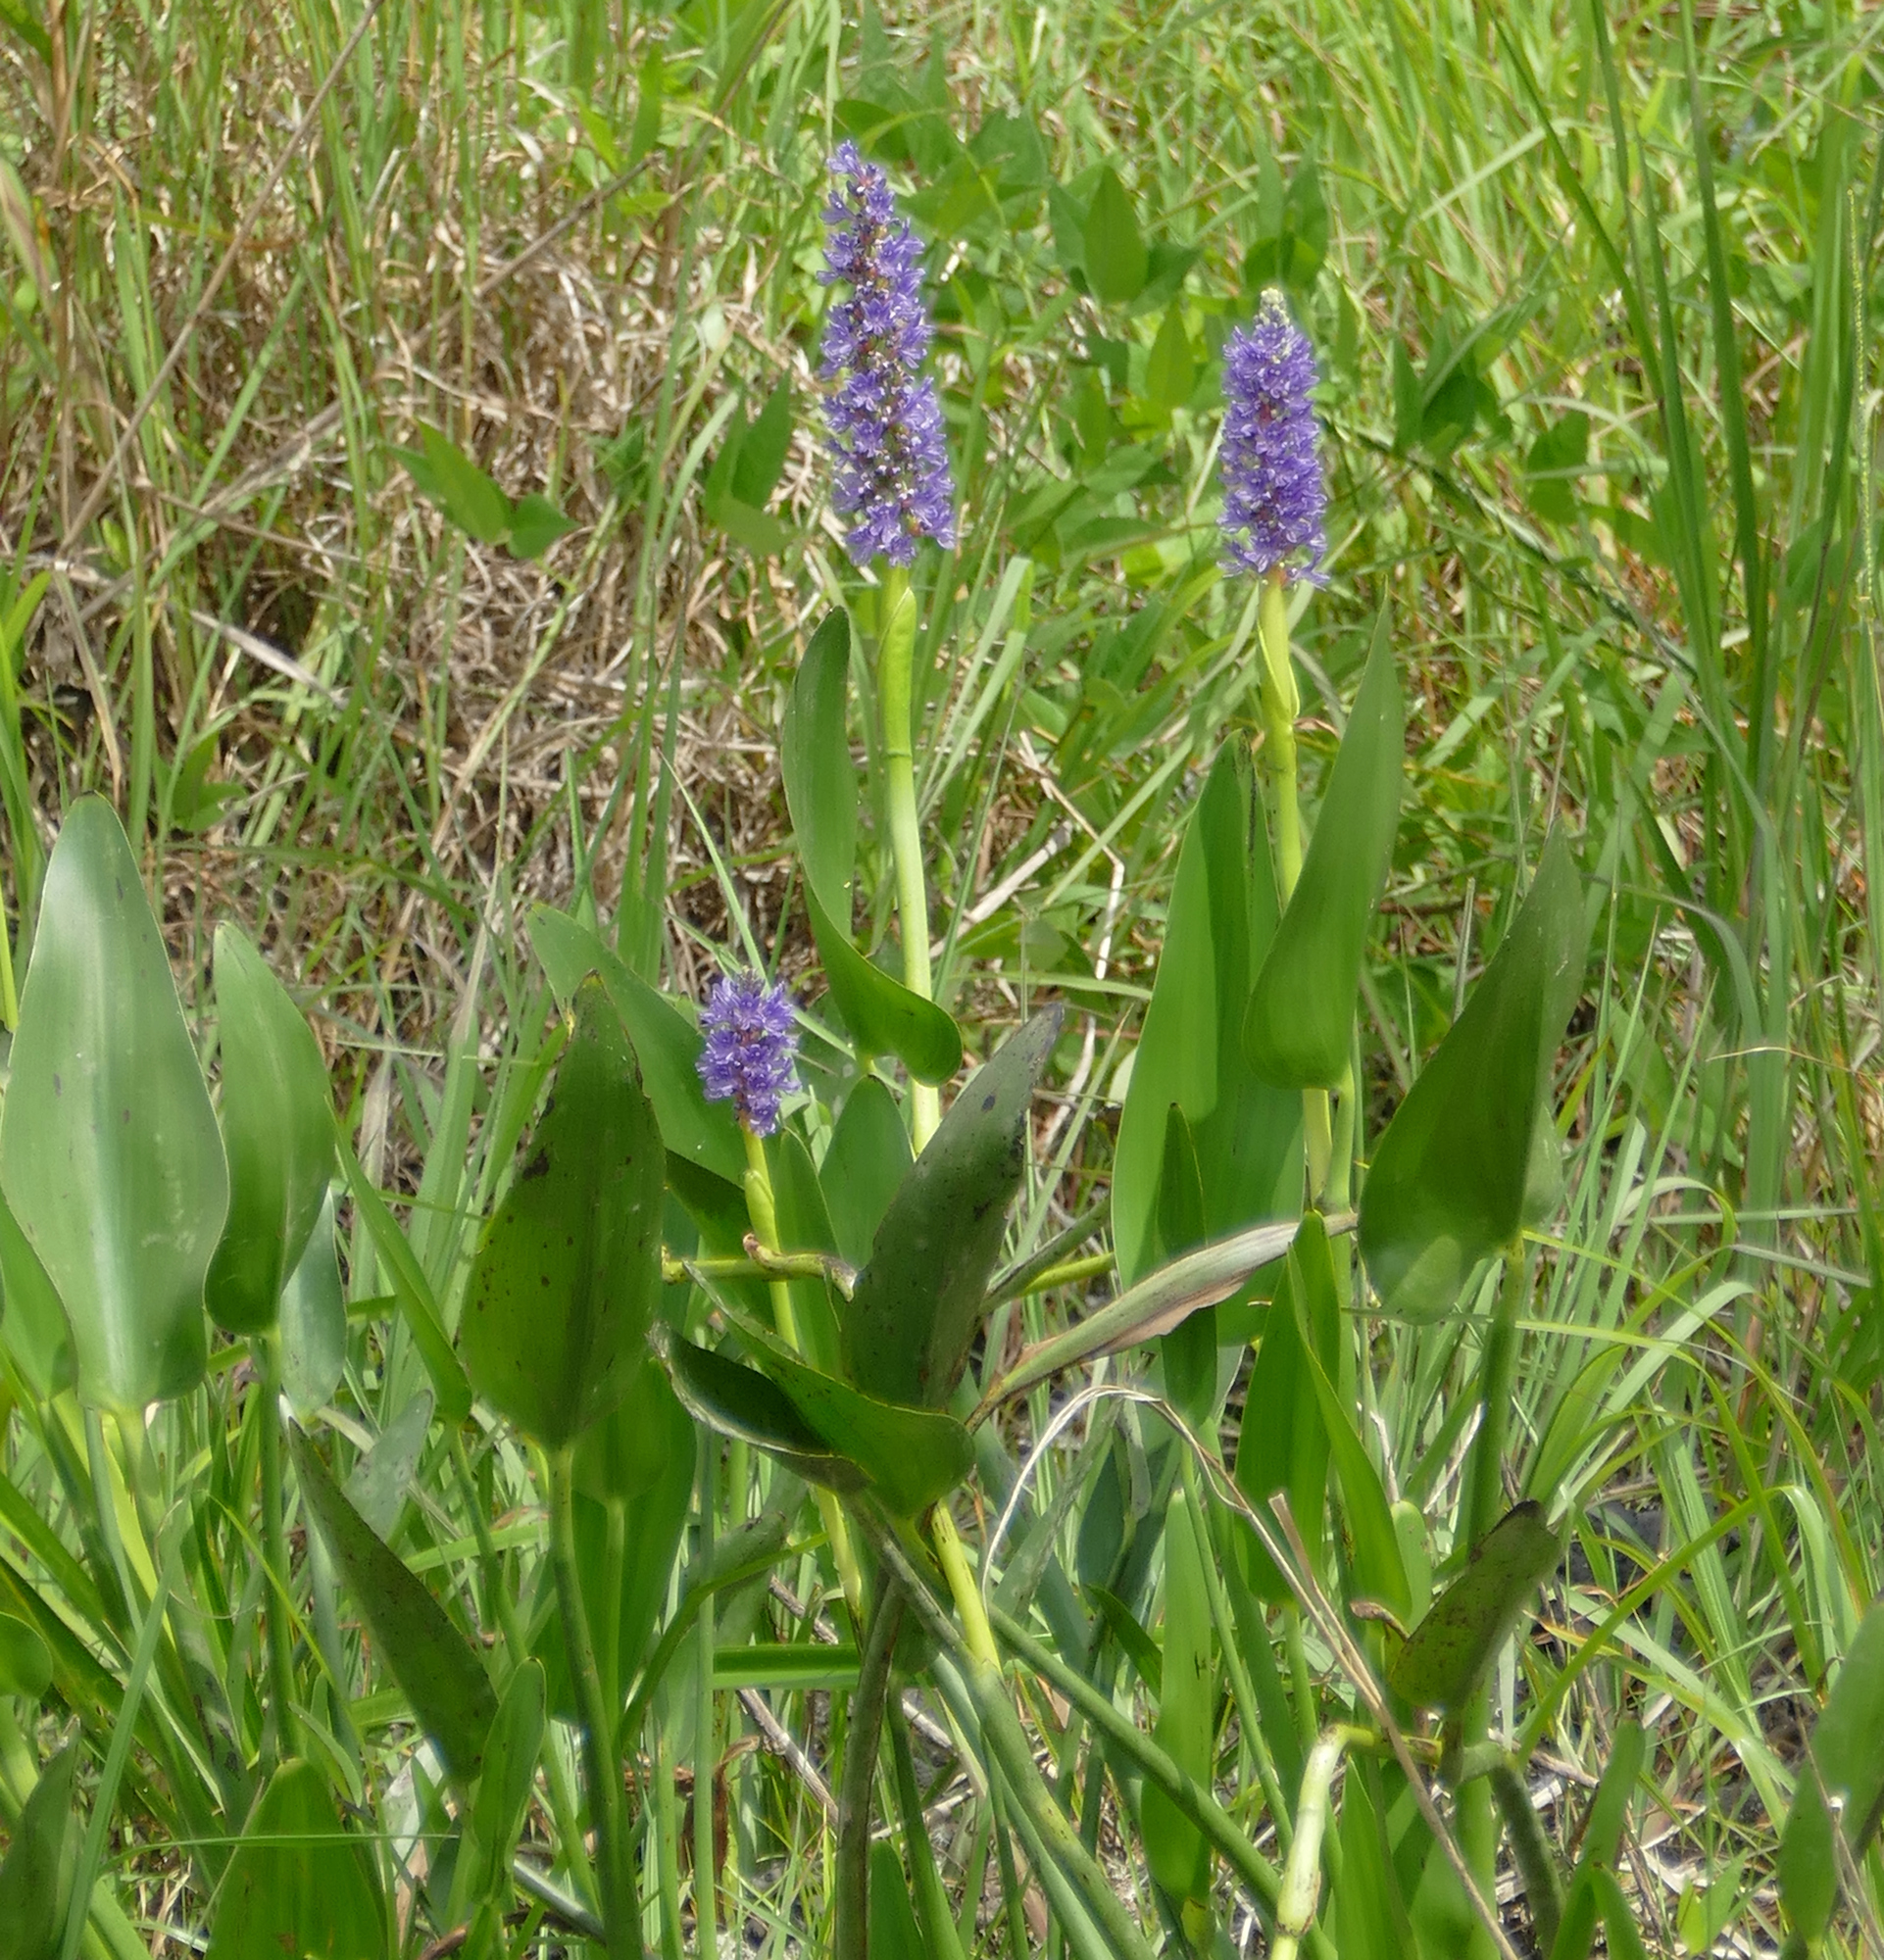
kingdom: Plantae
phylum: Tracheophyta
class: Liliopsida
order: Commelinales
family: Pontederiaceae
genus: Pontederia
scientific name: Pontederia cordata
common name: Pickerelweed
